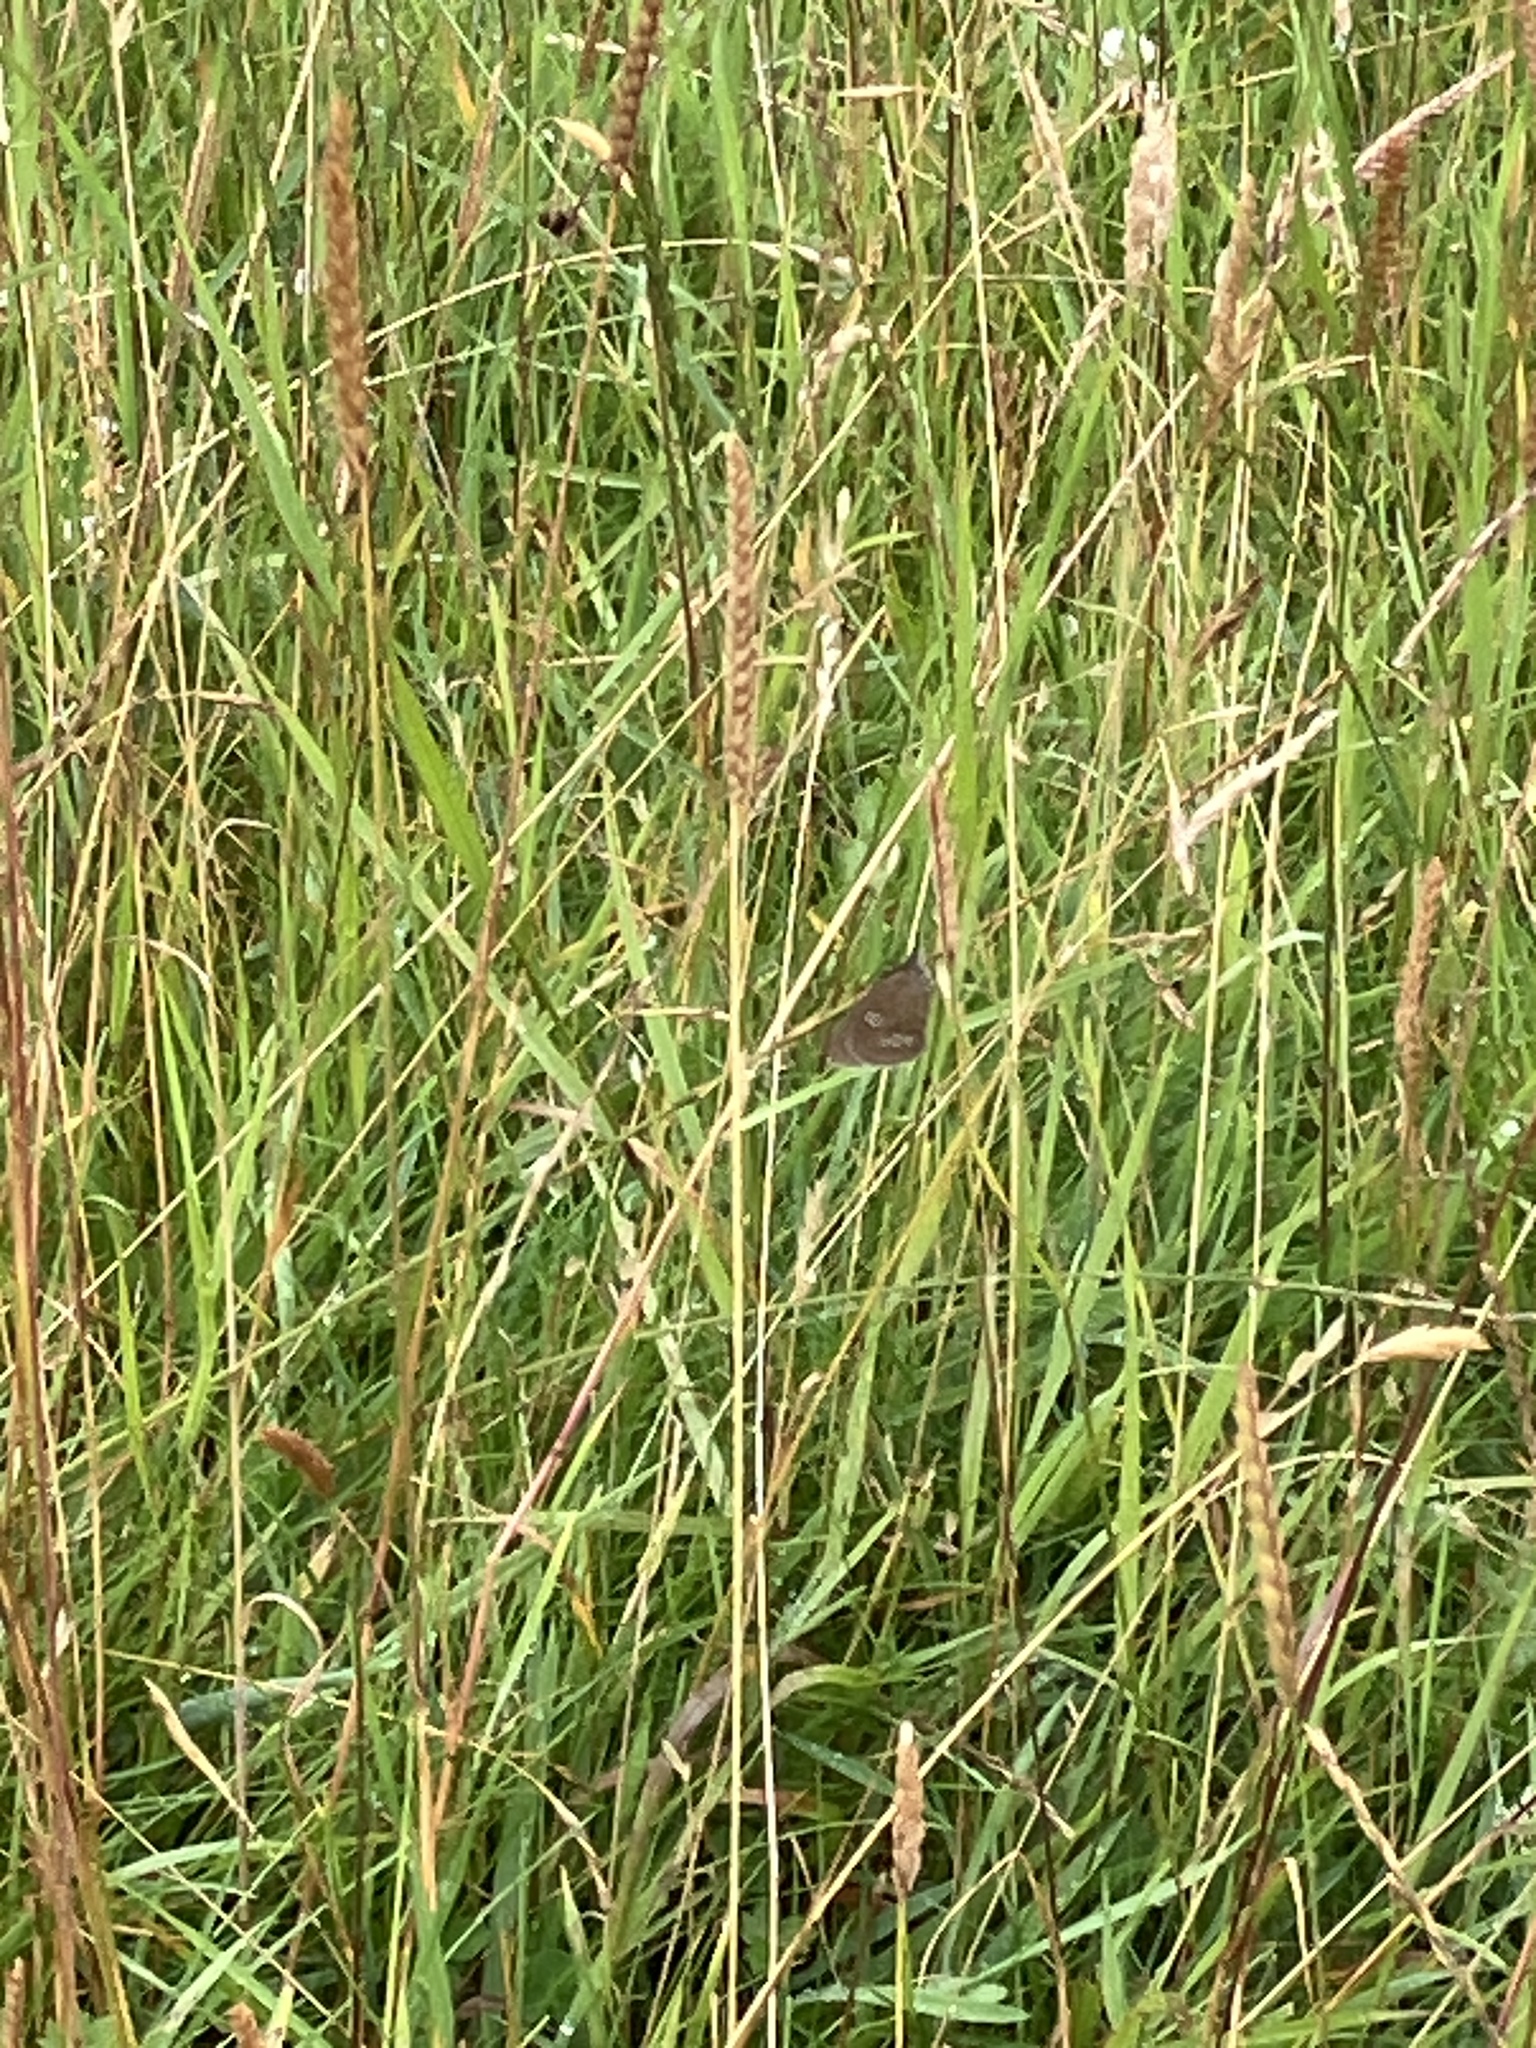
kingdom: Animalia
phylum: Arthropoda
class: Insecta
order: Lepidoptera
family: Nymphalidae
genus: Aphantopus
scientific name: Aphantopus hyperantus
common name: Ringlet
